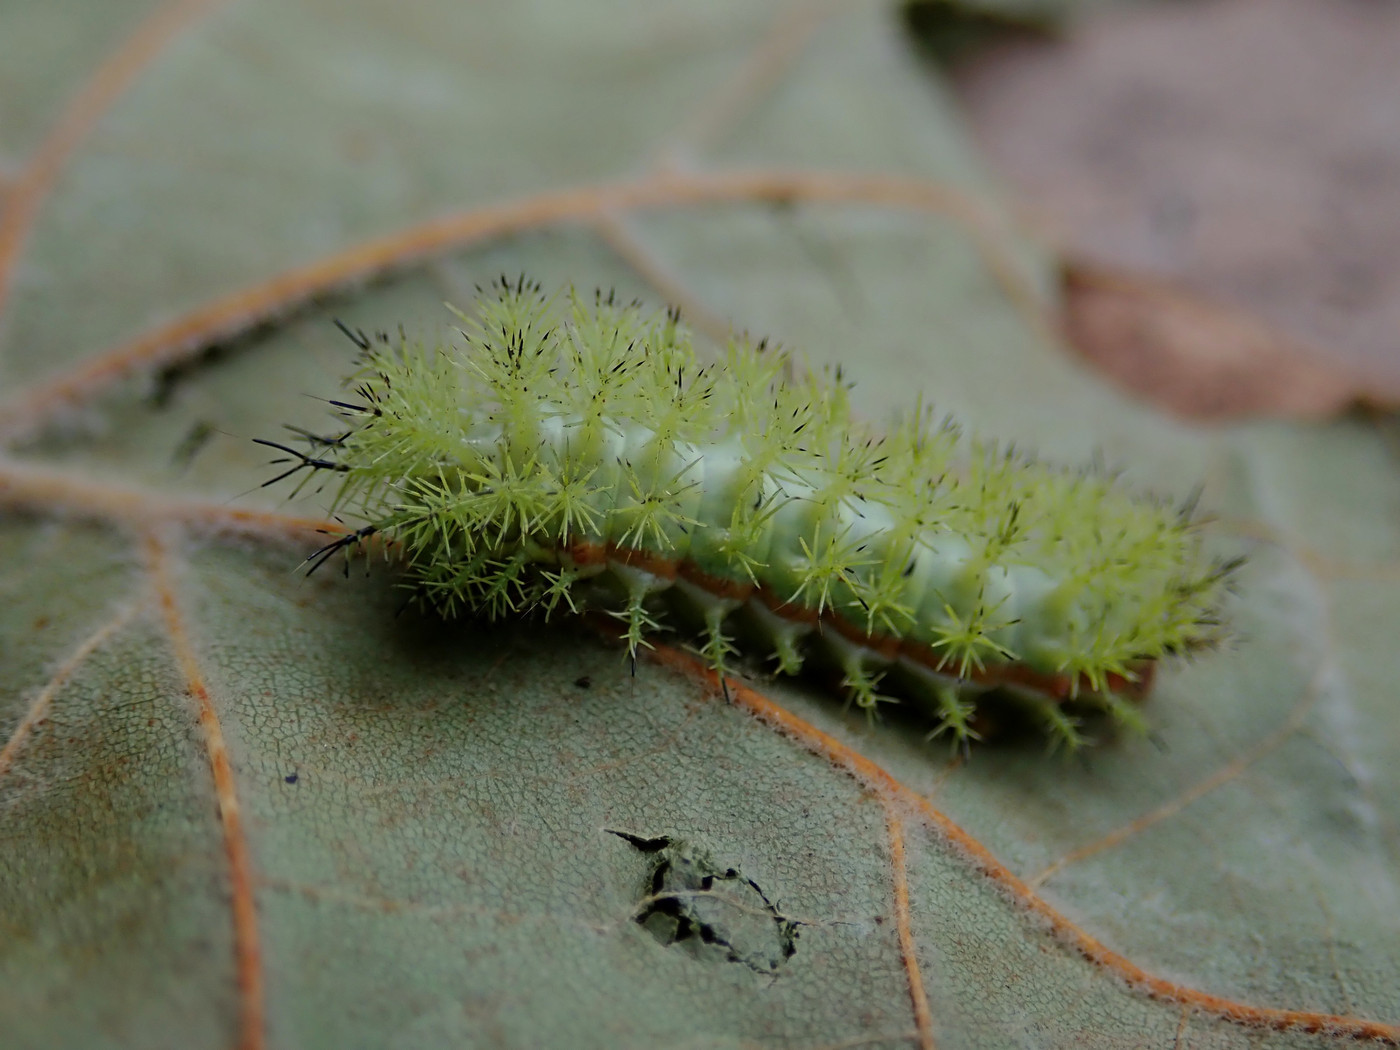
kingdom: Animalia
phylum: Arthropoda
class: Insecta
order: Lepidoptera
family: Saturniidae
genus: Automeris
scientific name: Automeris io
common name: Io moth
